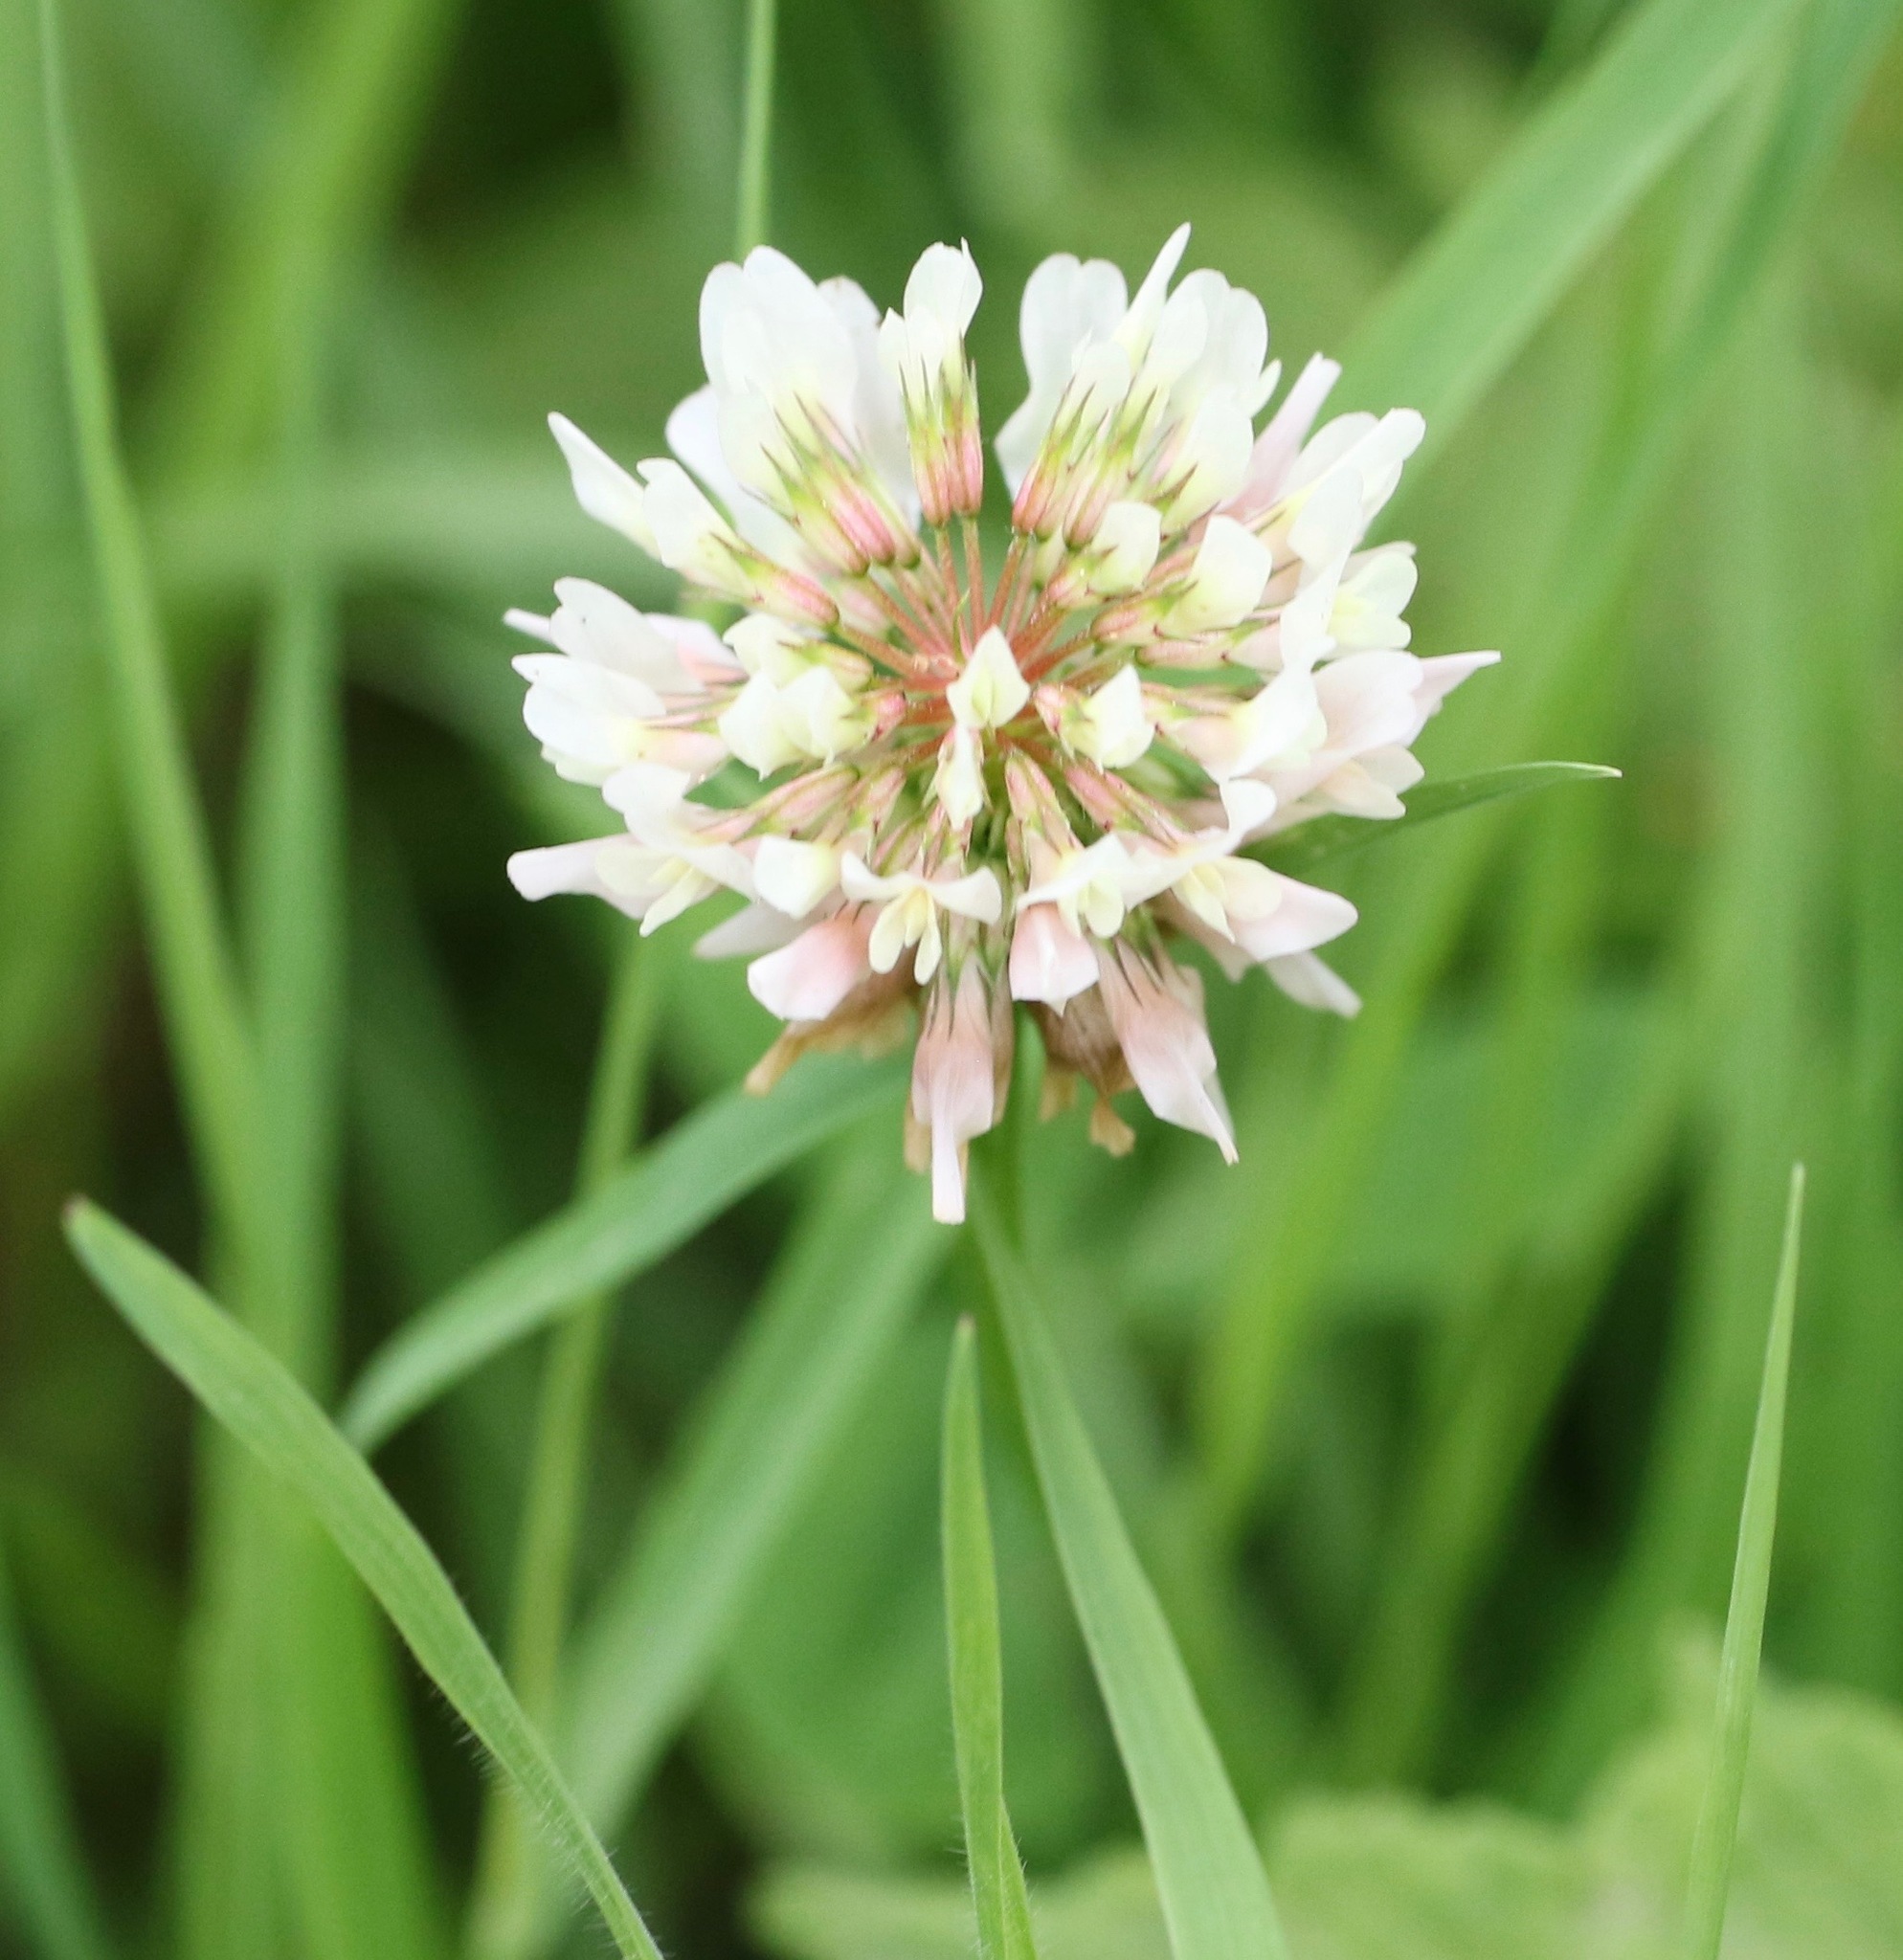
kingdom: Plantae
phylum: Tracheophyta
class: Magnoliopsida
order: Fabales
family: Fabaceae
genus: Trifolium
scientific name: Trifolium repens
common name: White clover
